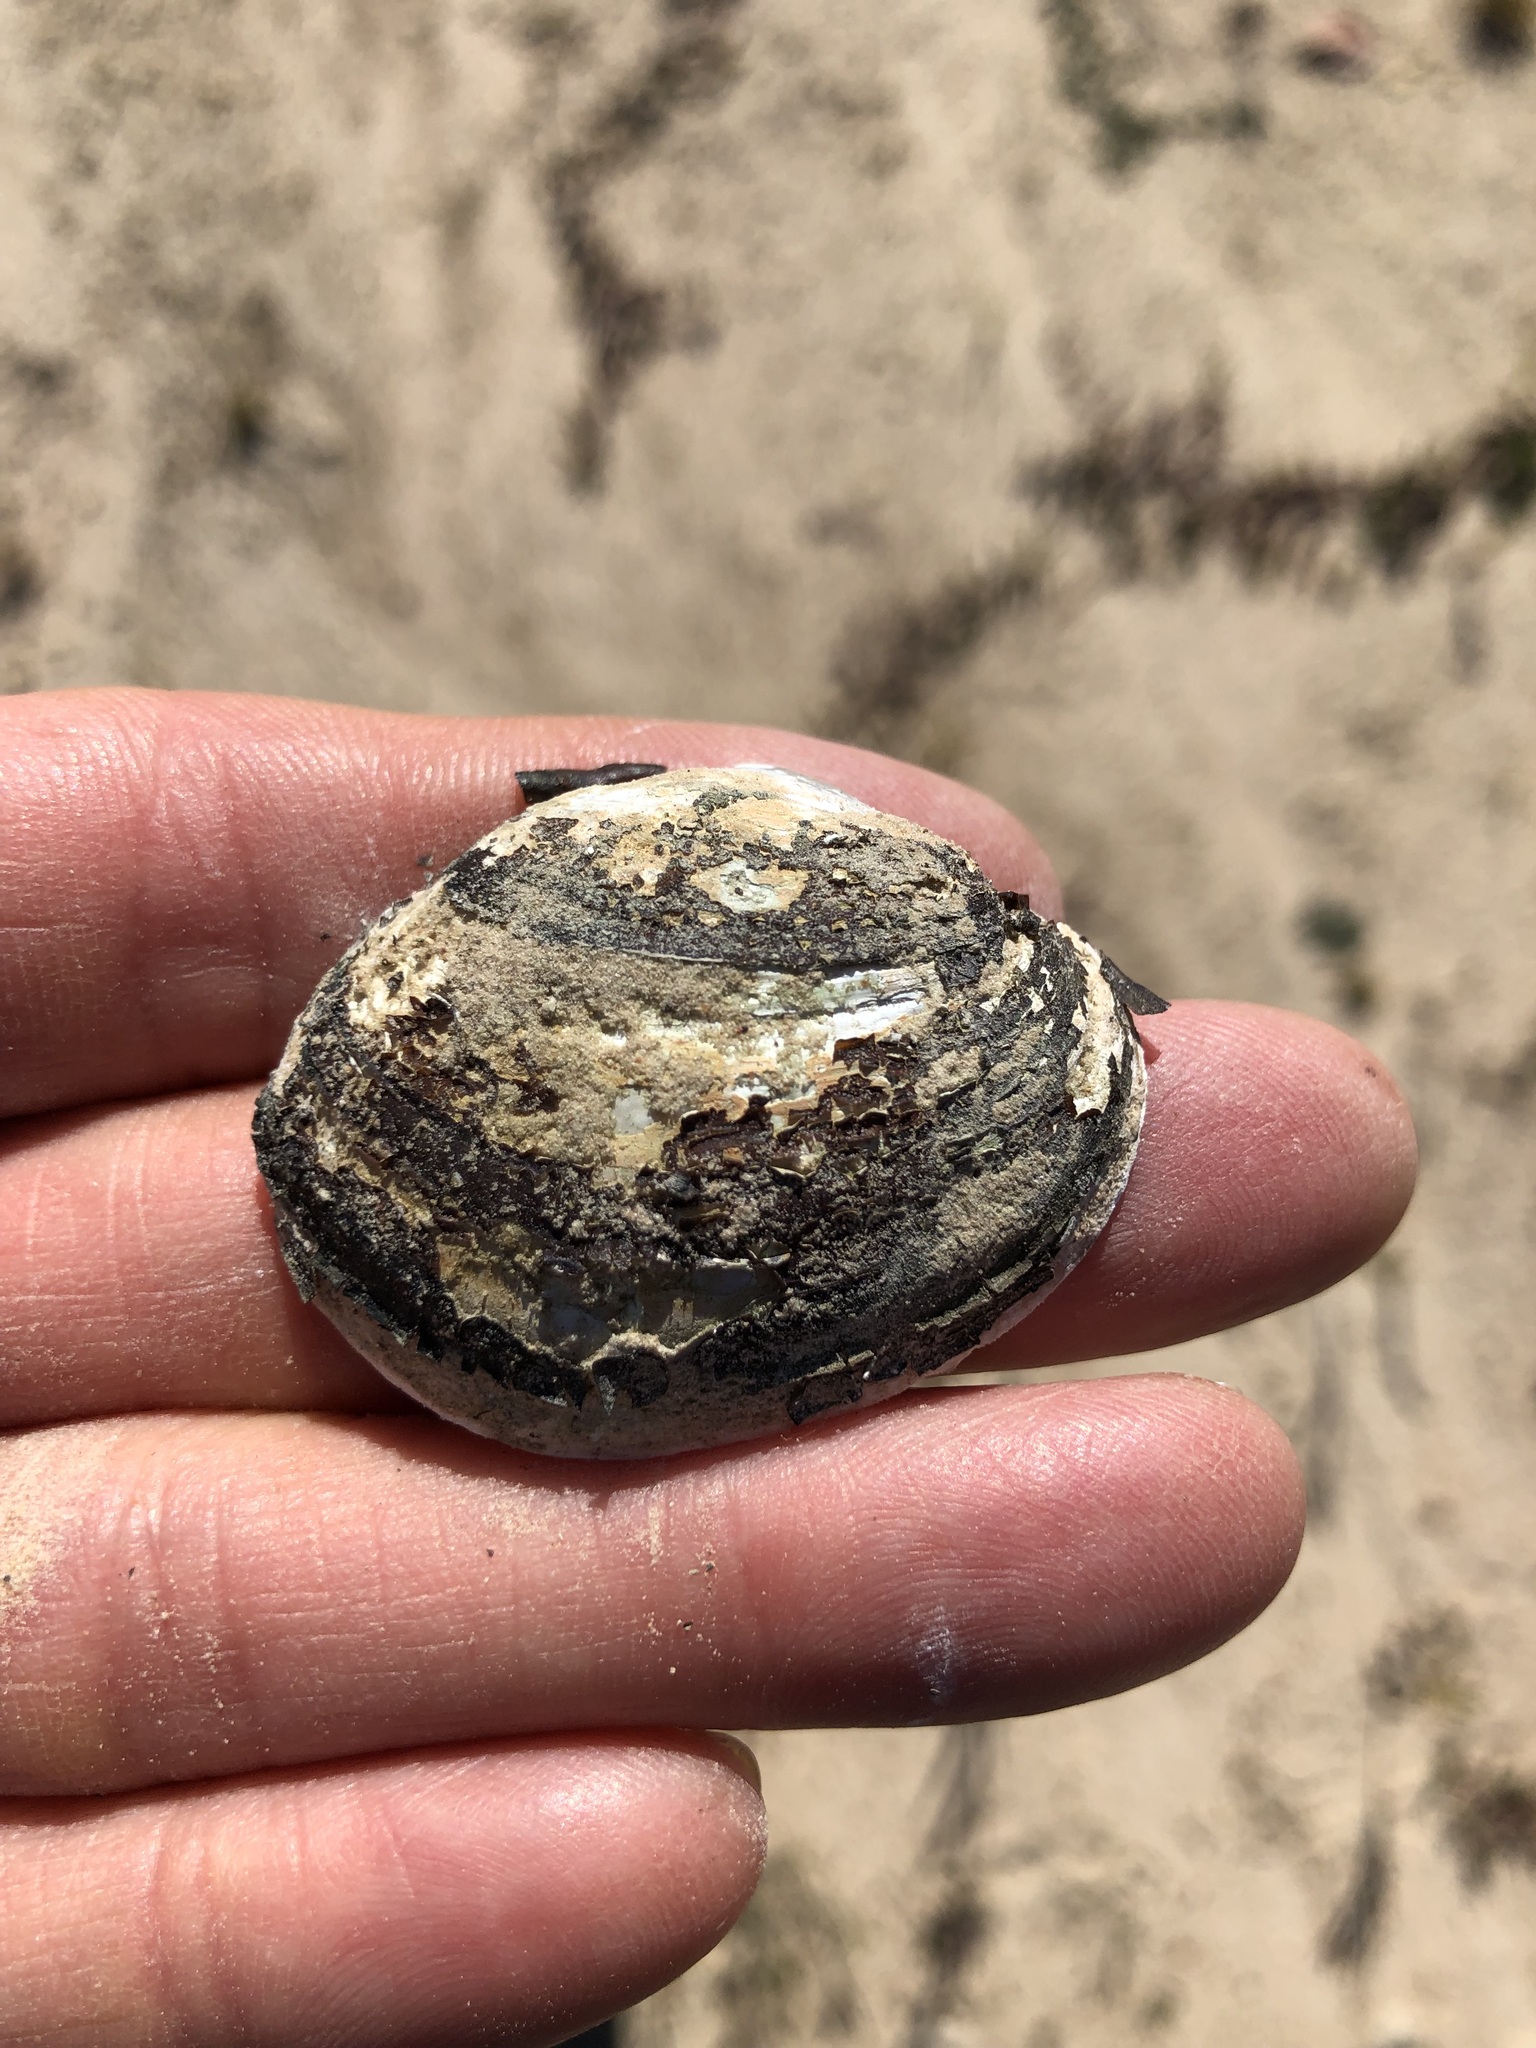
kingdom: Animalia
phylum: Mollusca
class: Bivalvia
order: Unionida
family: Unionidae
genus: Glebula
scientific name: Glebula rotundata
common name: Round pearlshell
